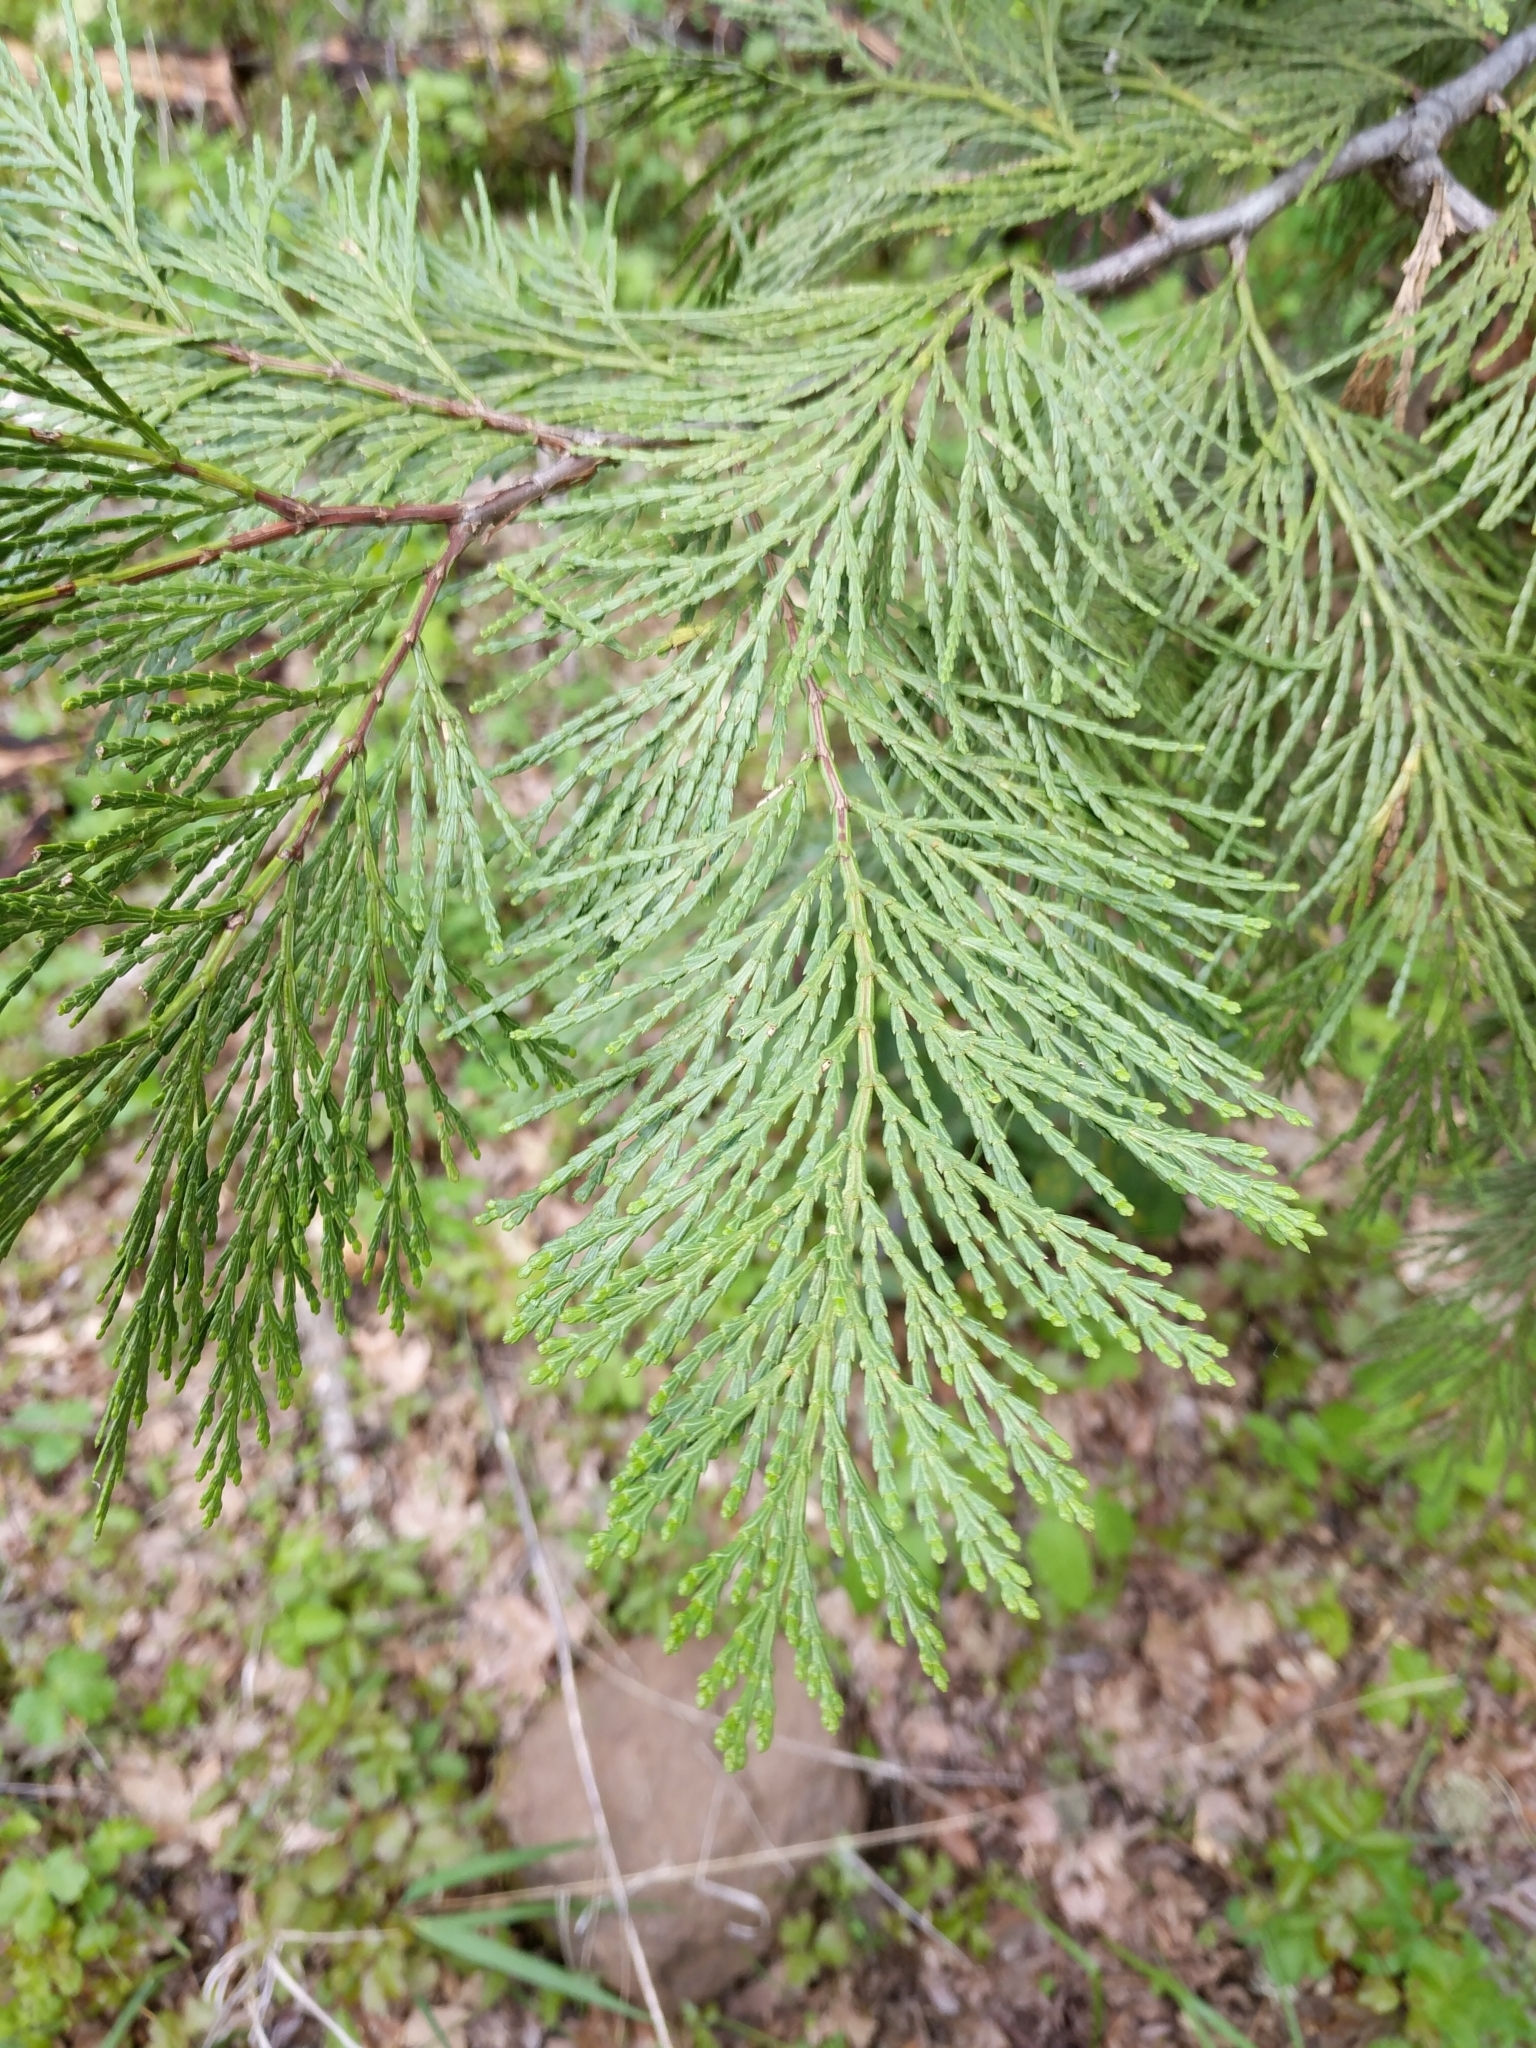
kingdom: Plantae
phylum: Tracheophyta
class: Pinopsida
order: Pinales
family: Cupressaceae
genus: Calocedrus
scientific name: Calocedrus decurrens
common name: Californian incense-cedar
